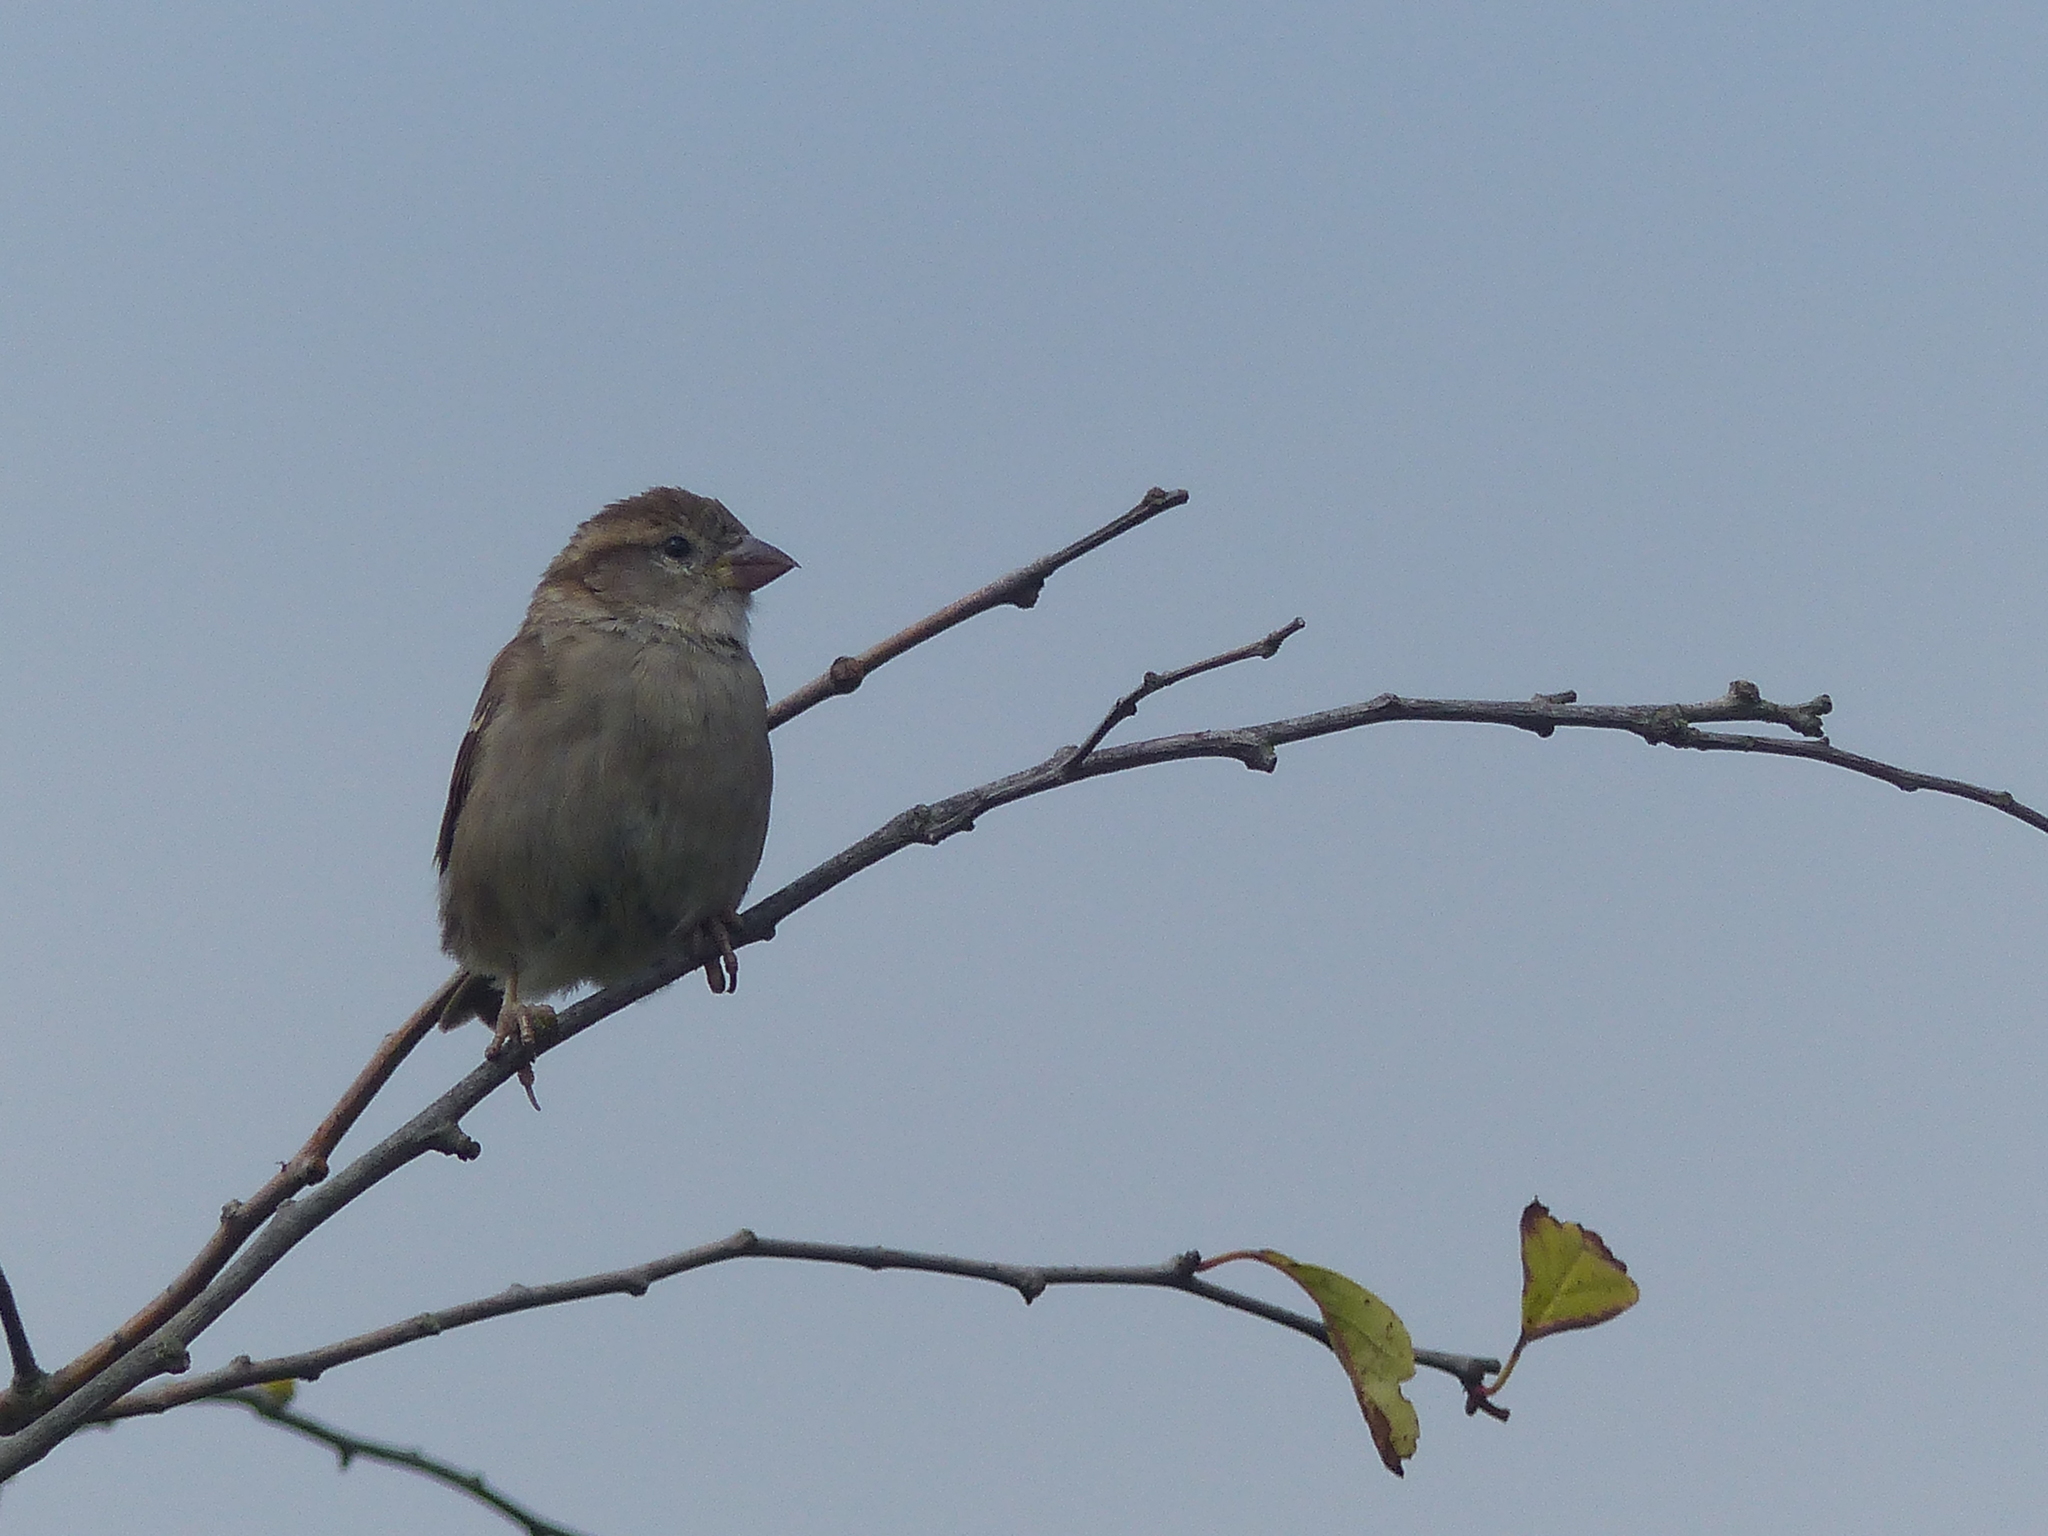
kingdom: Animalia
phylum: Chordata
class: Aves
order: Passeriformes
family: Passeridae
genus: Passer
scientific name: Passer domesticus
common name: House sparrow
